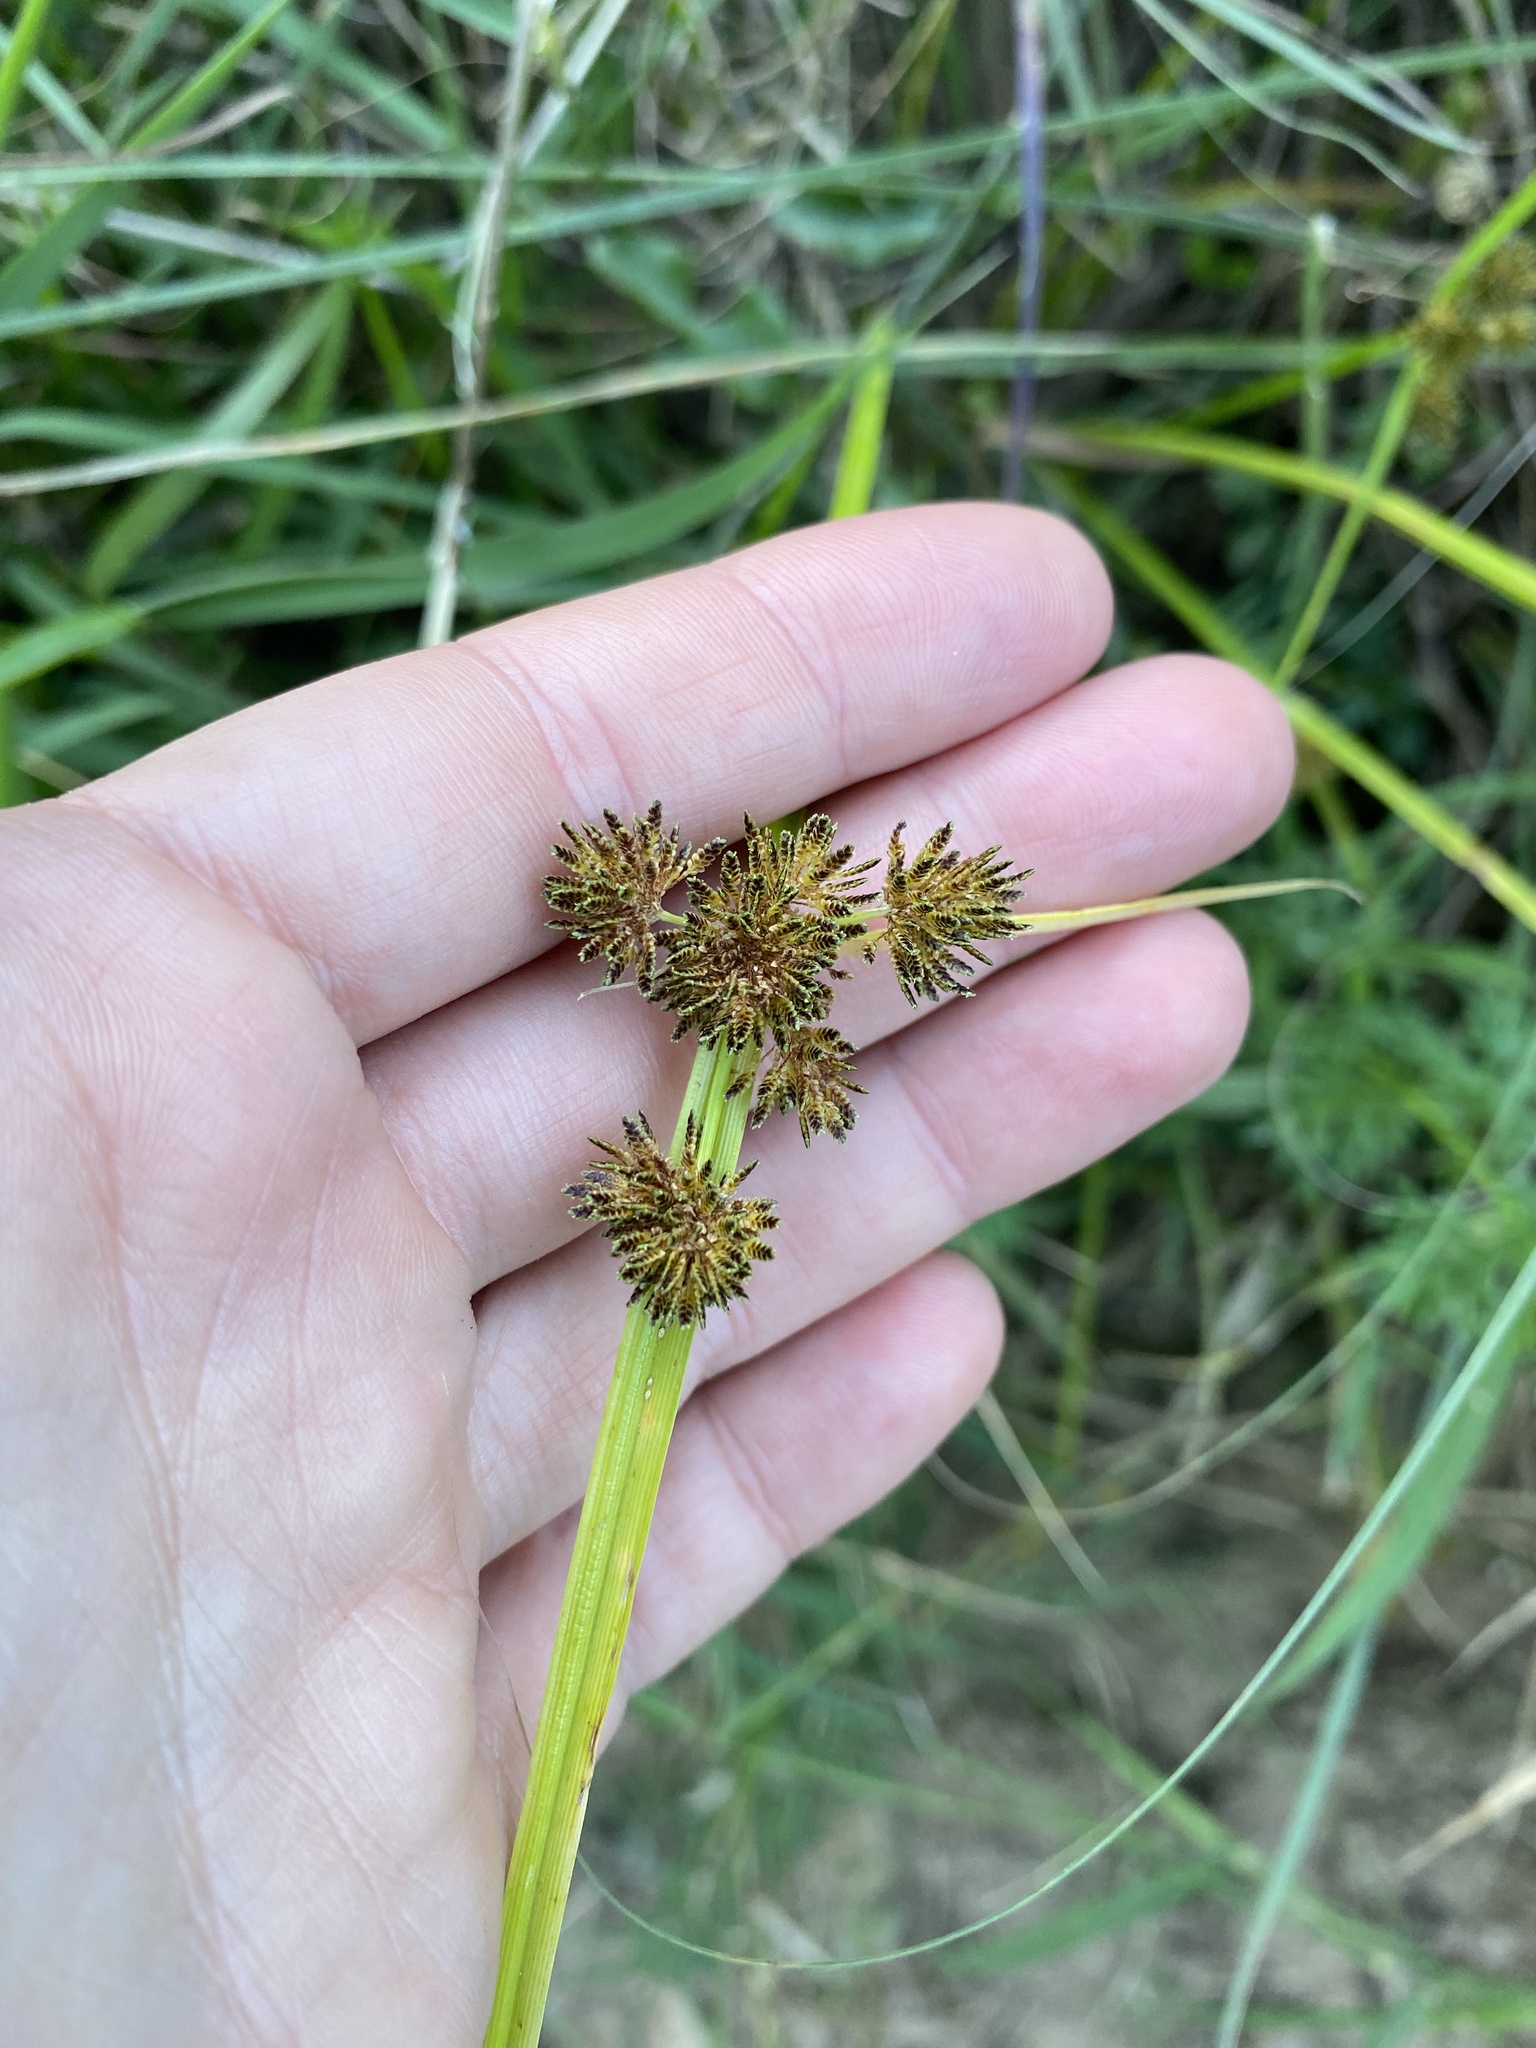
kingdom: Plantae
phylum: Tracheophyta
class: Liliopsida
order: Poales
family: Cyperaceae
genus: Cyperus
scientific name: Cyperus difformis
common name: Variable flatsedge
